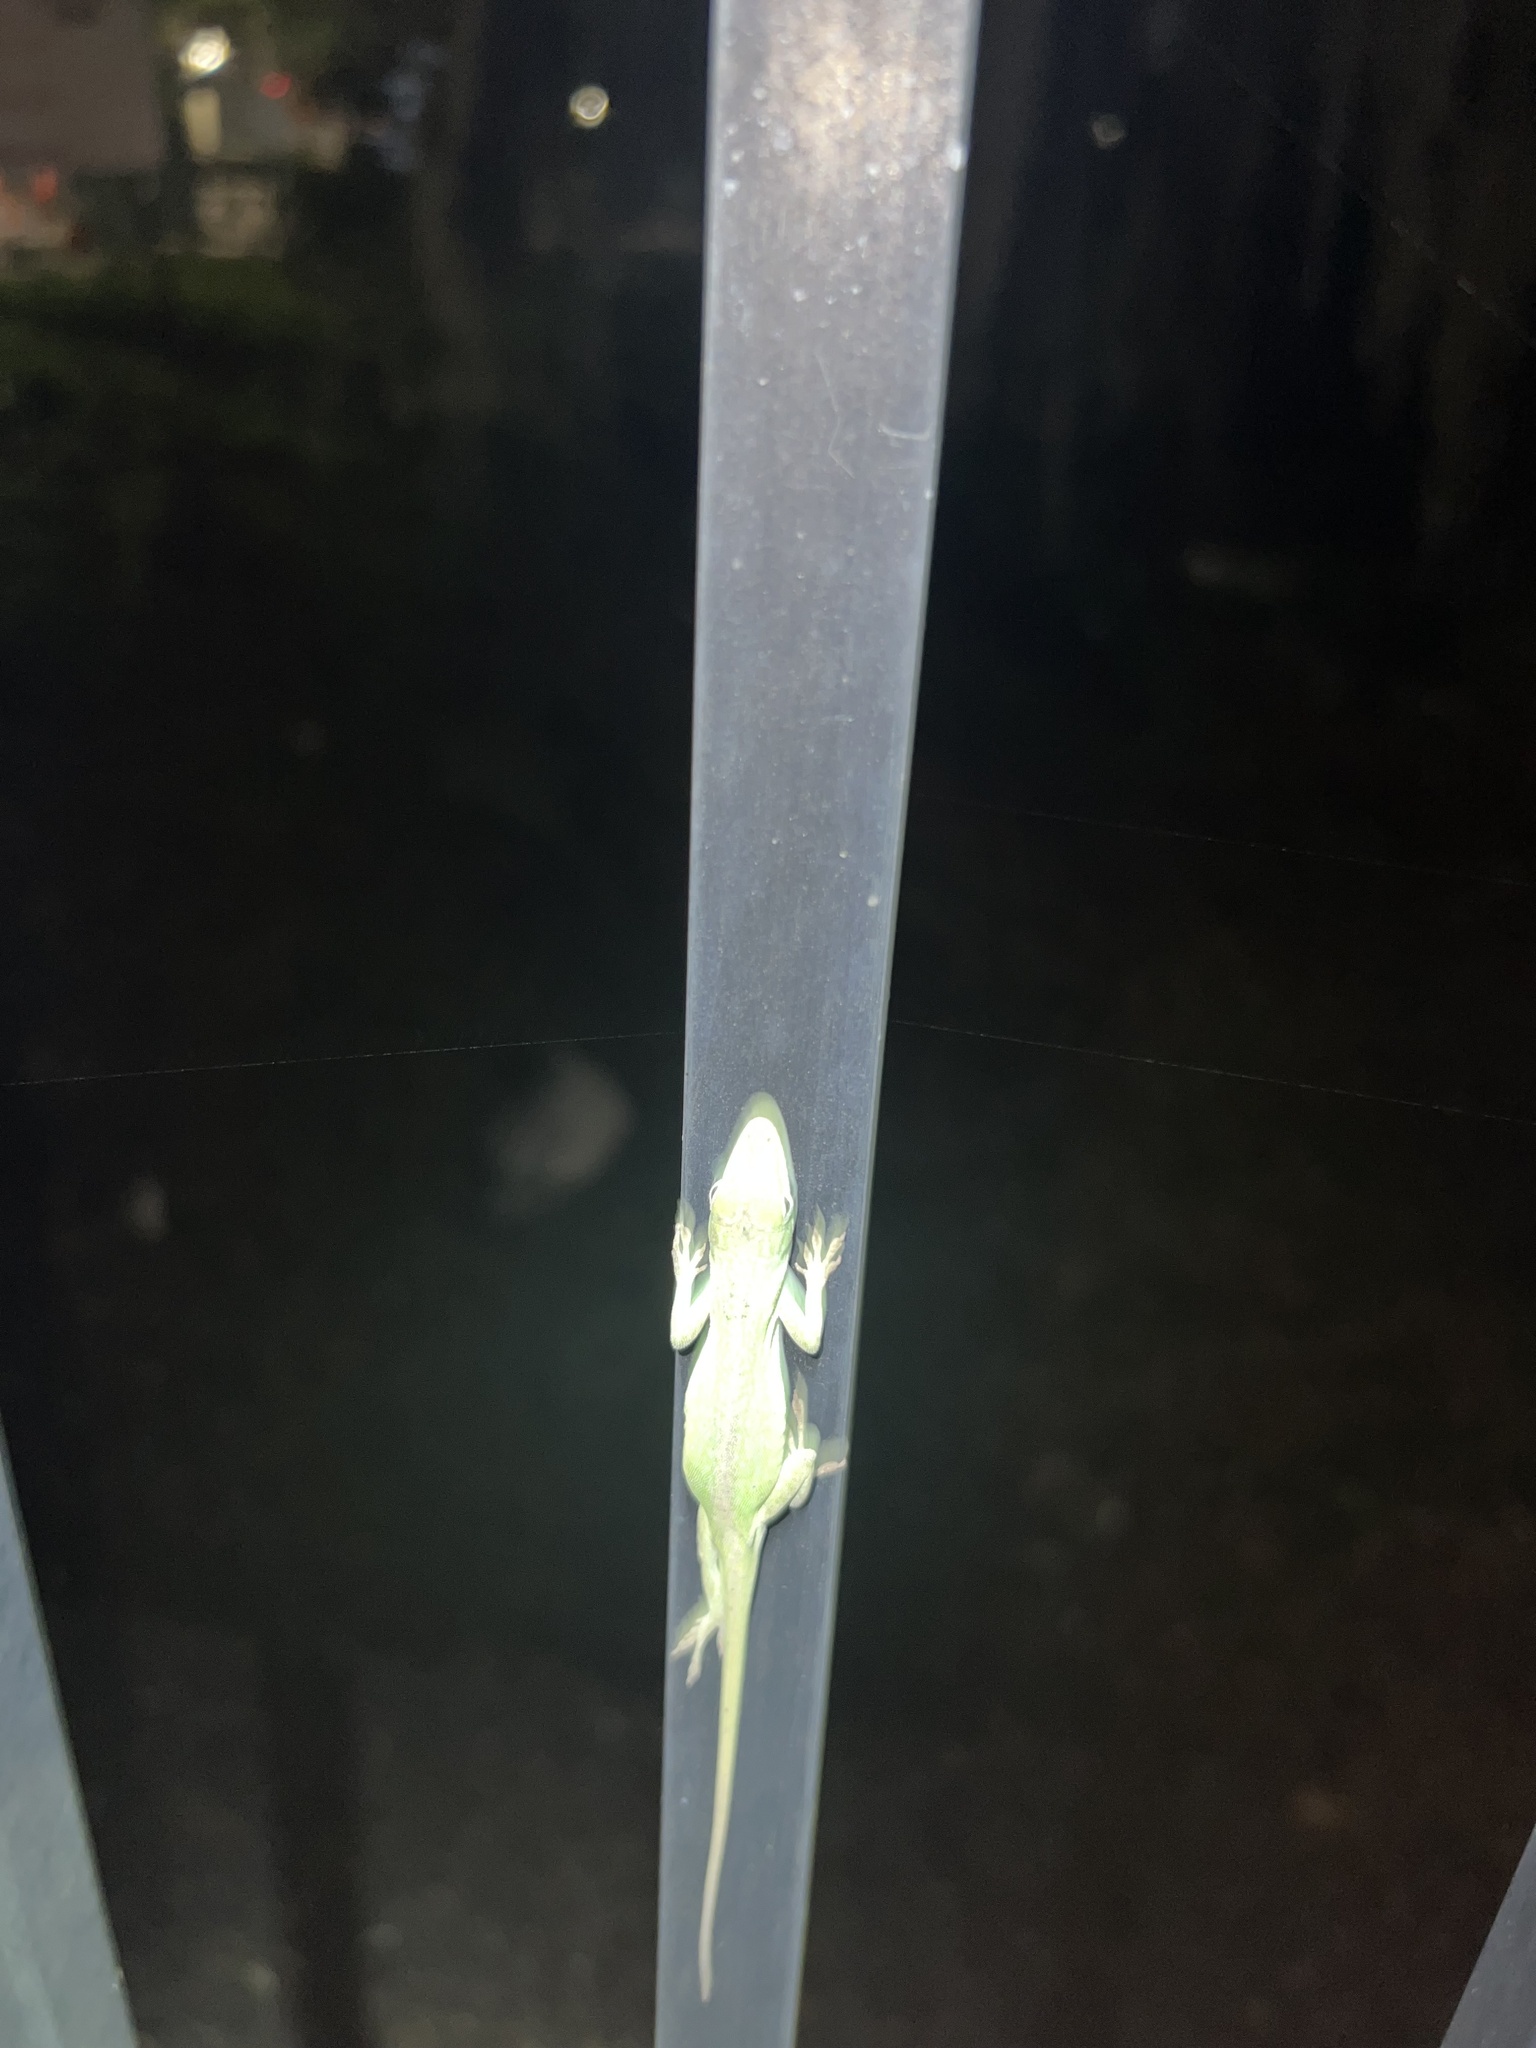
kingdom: Animalia
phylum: Chordata
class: Squamata
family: Dactyloidae
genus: Anolis
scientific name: Anolis carolinensis
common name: Green anole
